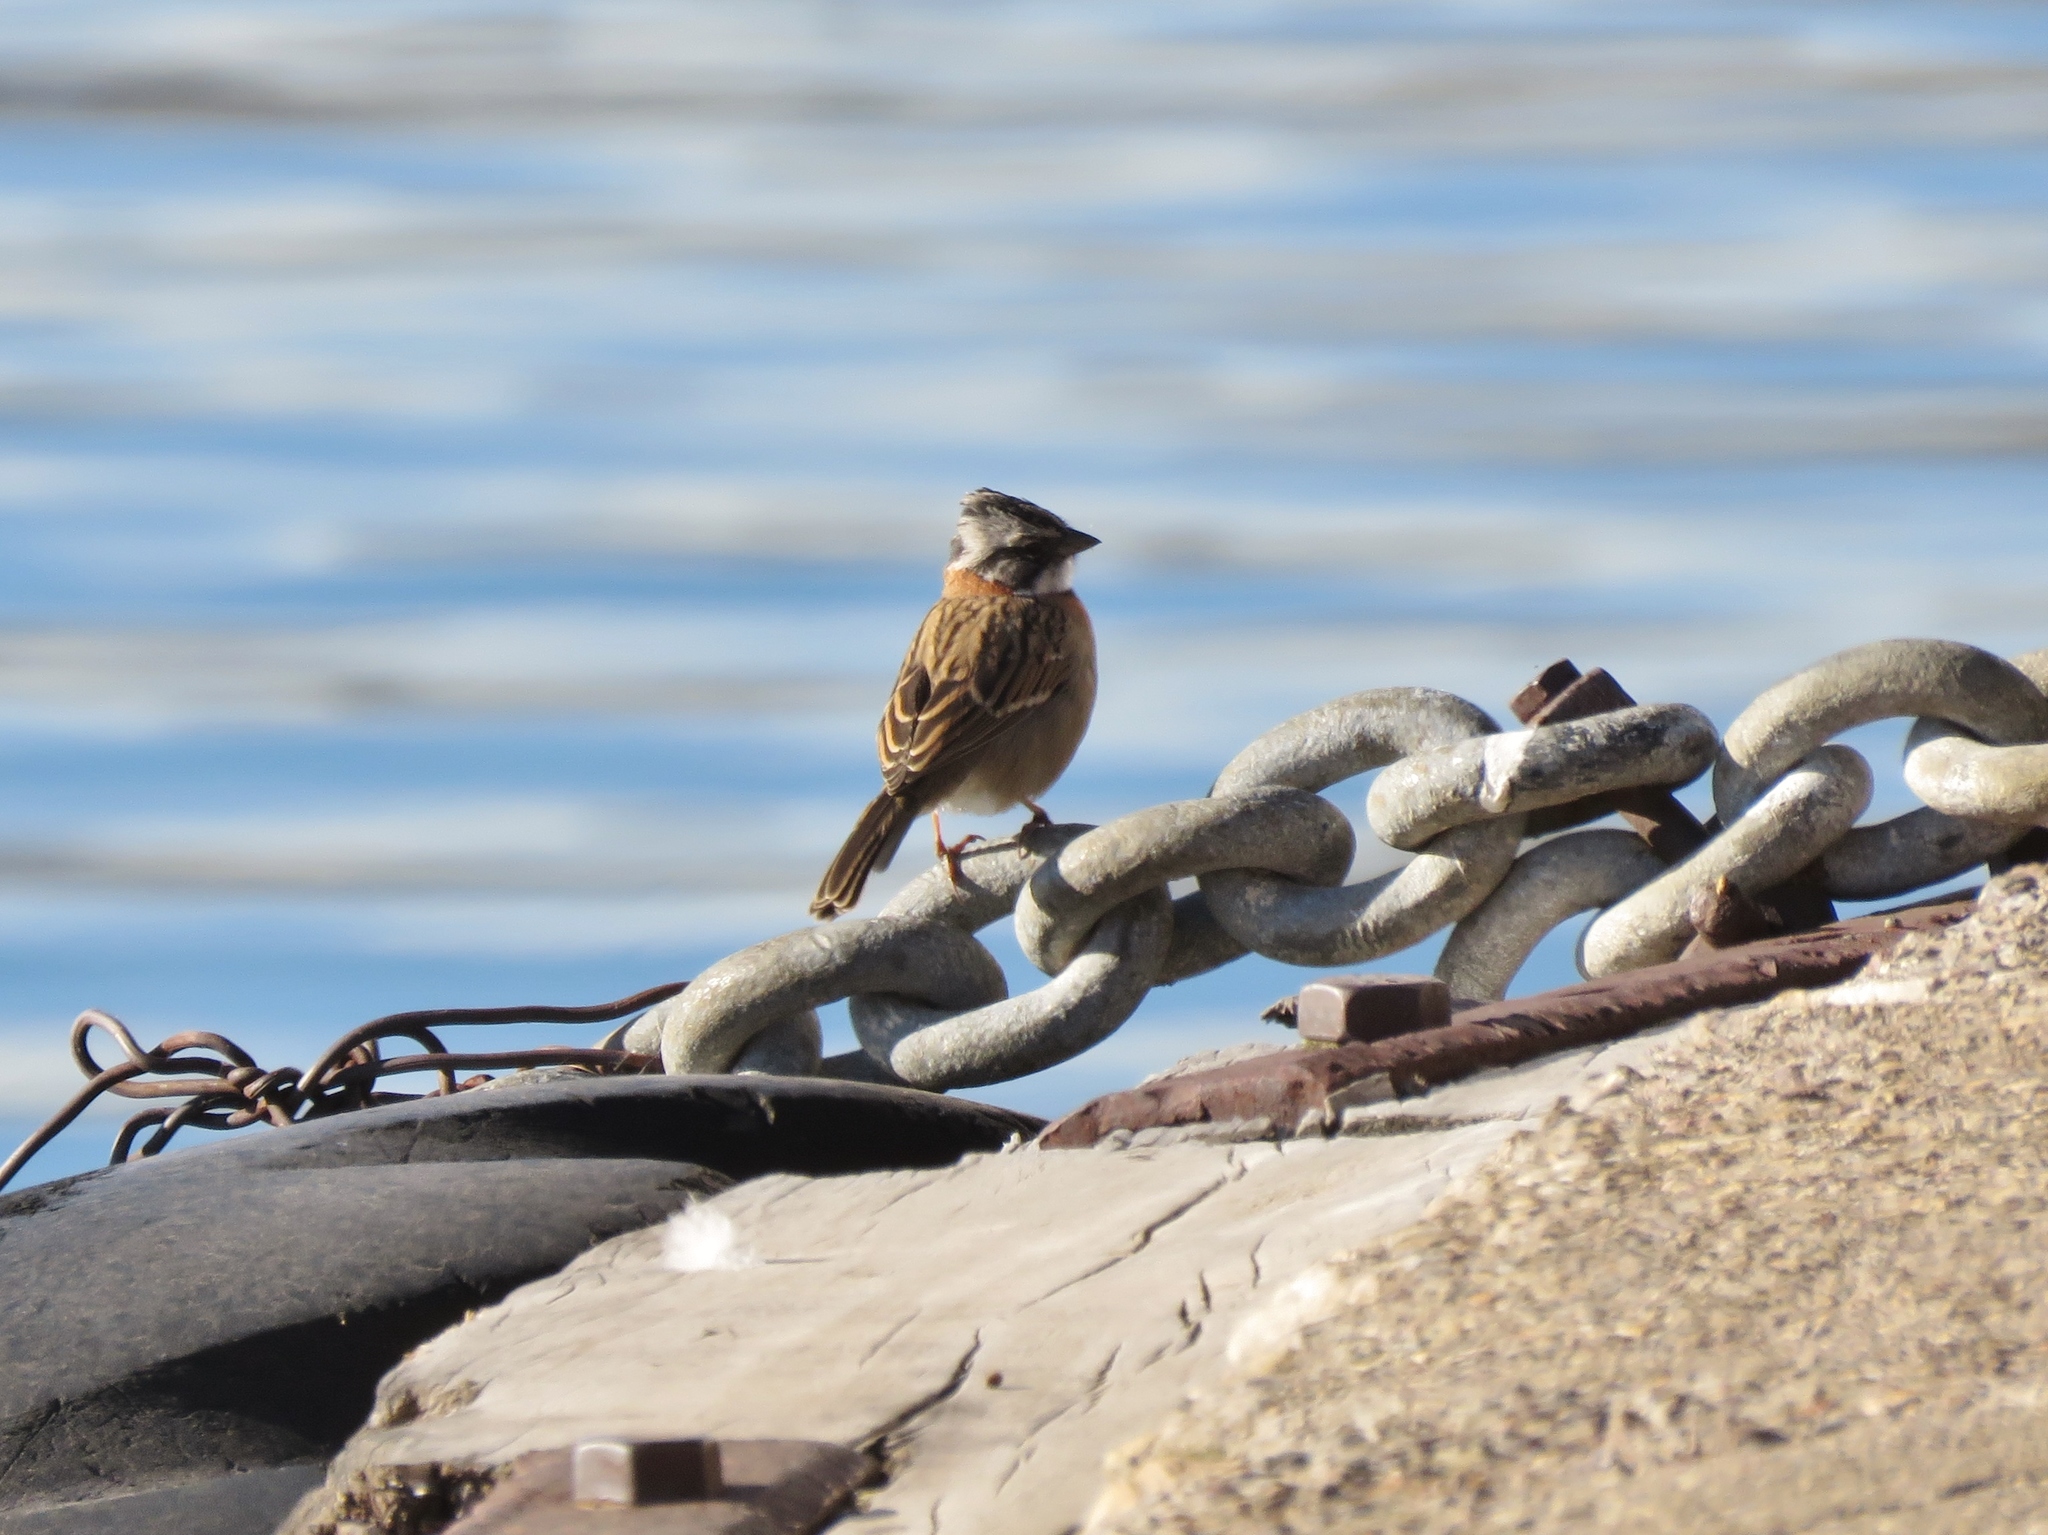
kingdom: Animalia
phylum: Chordata
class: Aves
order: Passeriformes
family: Passerellidae
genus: Zonotrichia
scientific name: Zonotrichia capensis
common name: Rufous-collared sparrow
